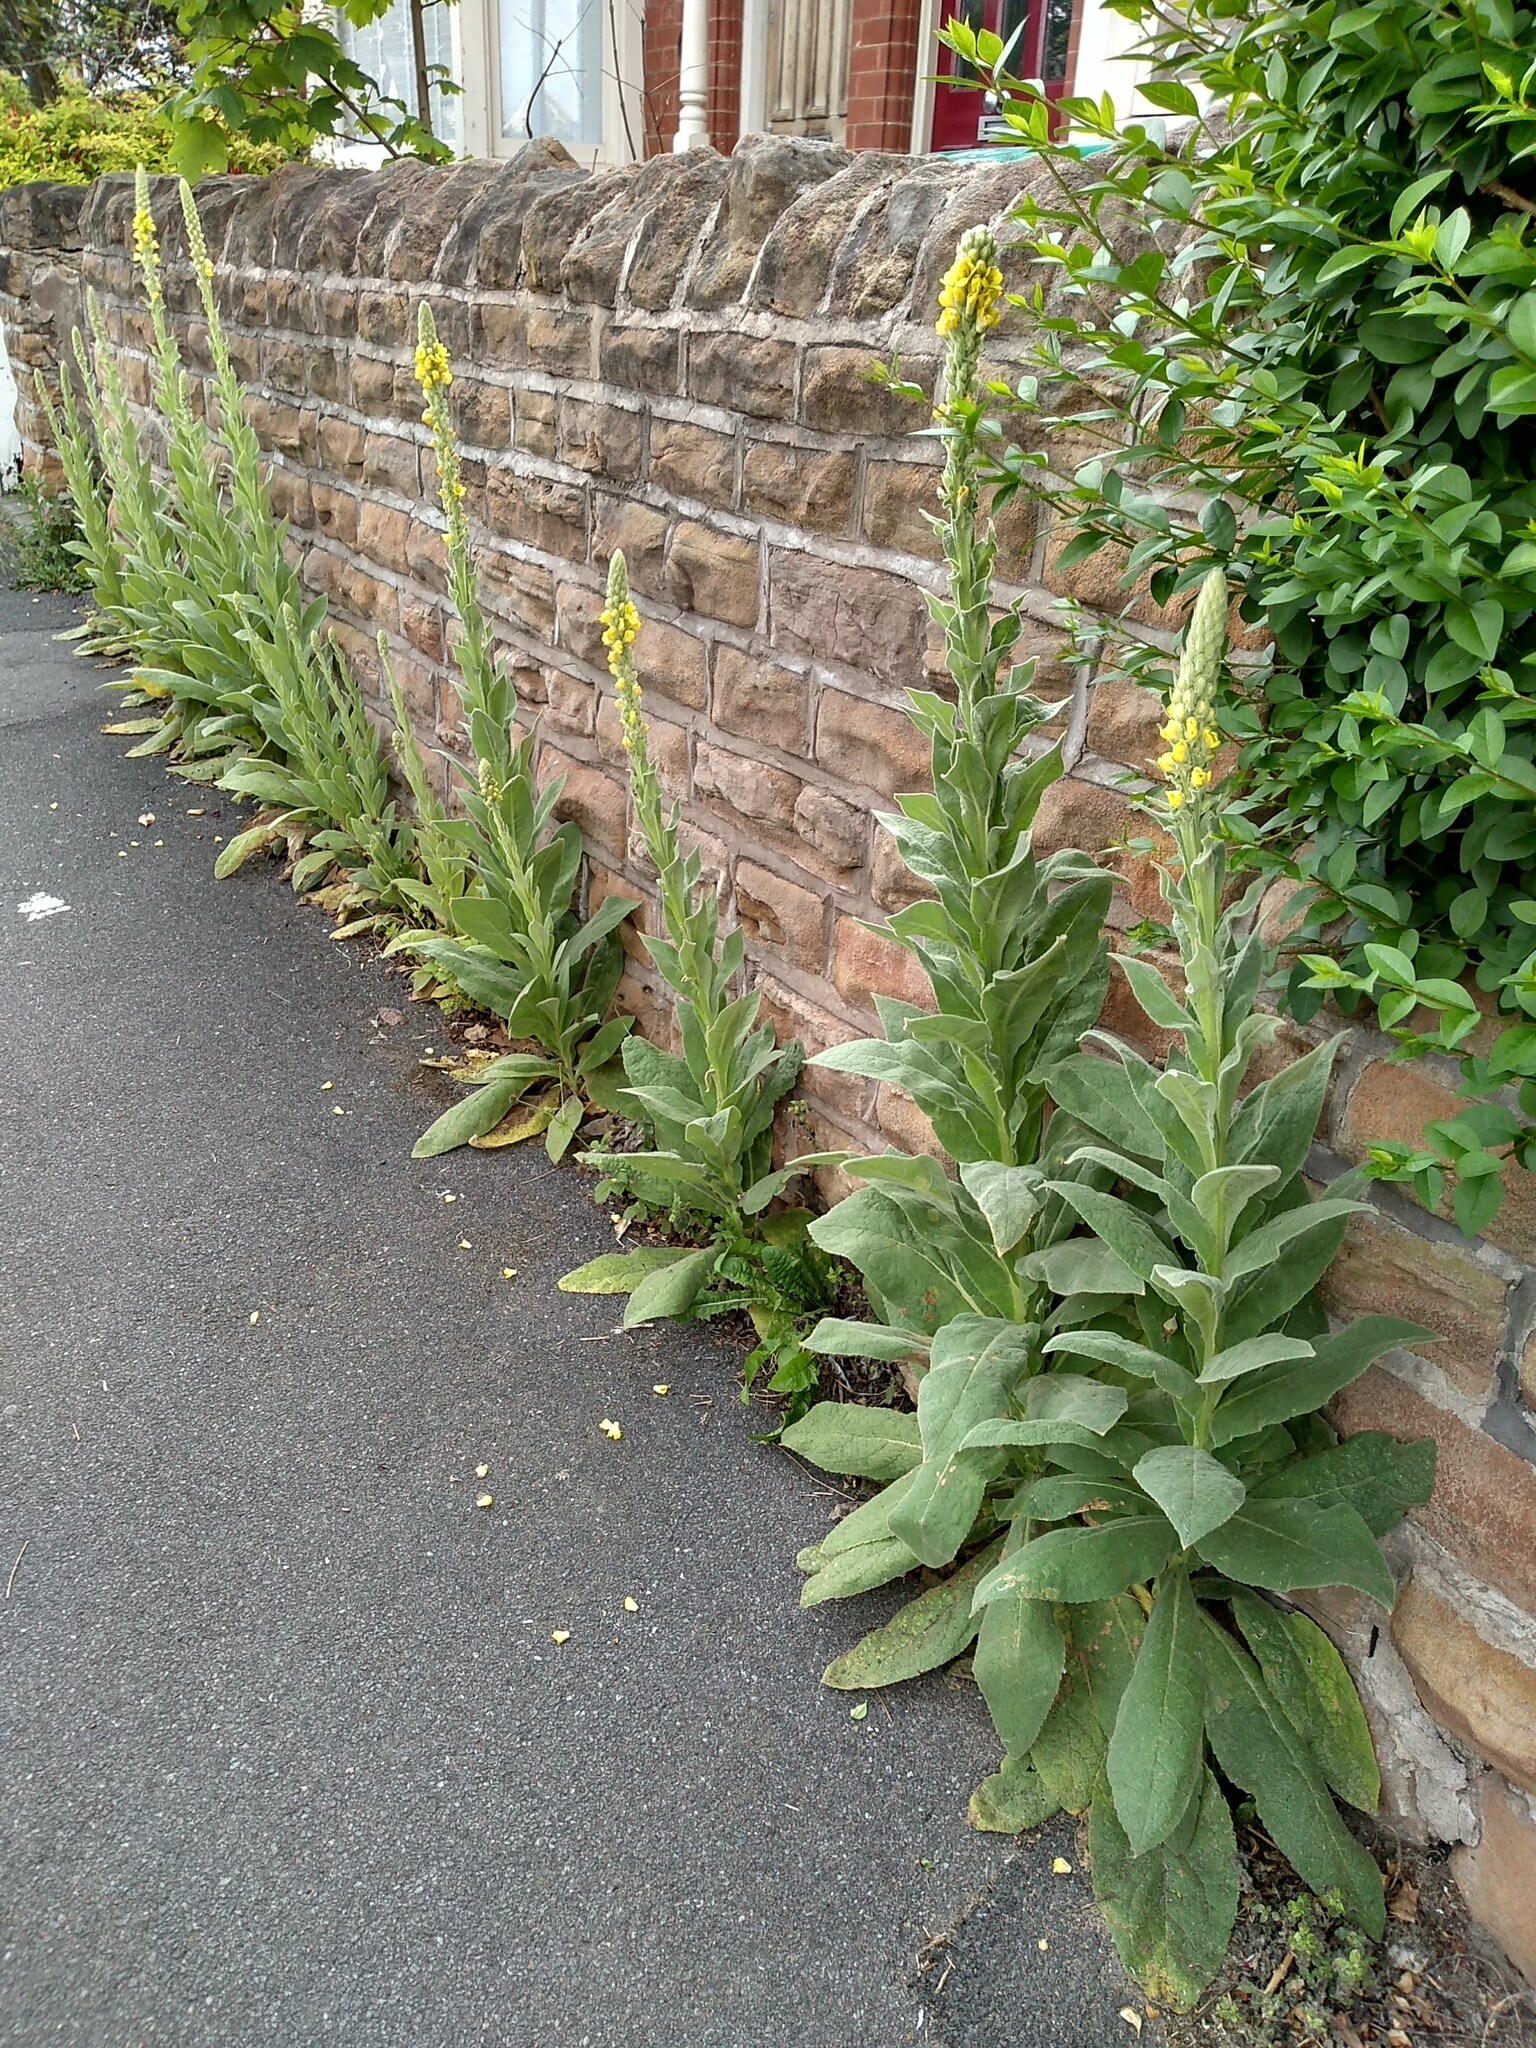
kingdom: Plantae
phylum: Tracheophyta
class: Magnoliopsida
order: Lamiales
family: Scrophulariaceae
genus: Verbascum
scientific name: Verbascum thapsus
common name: Common mullein
